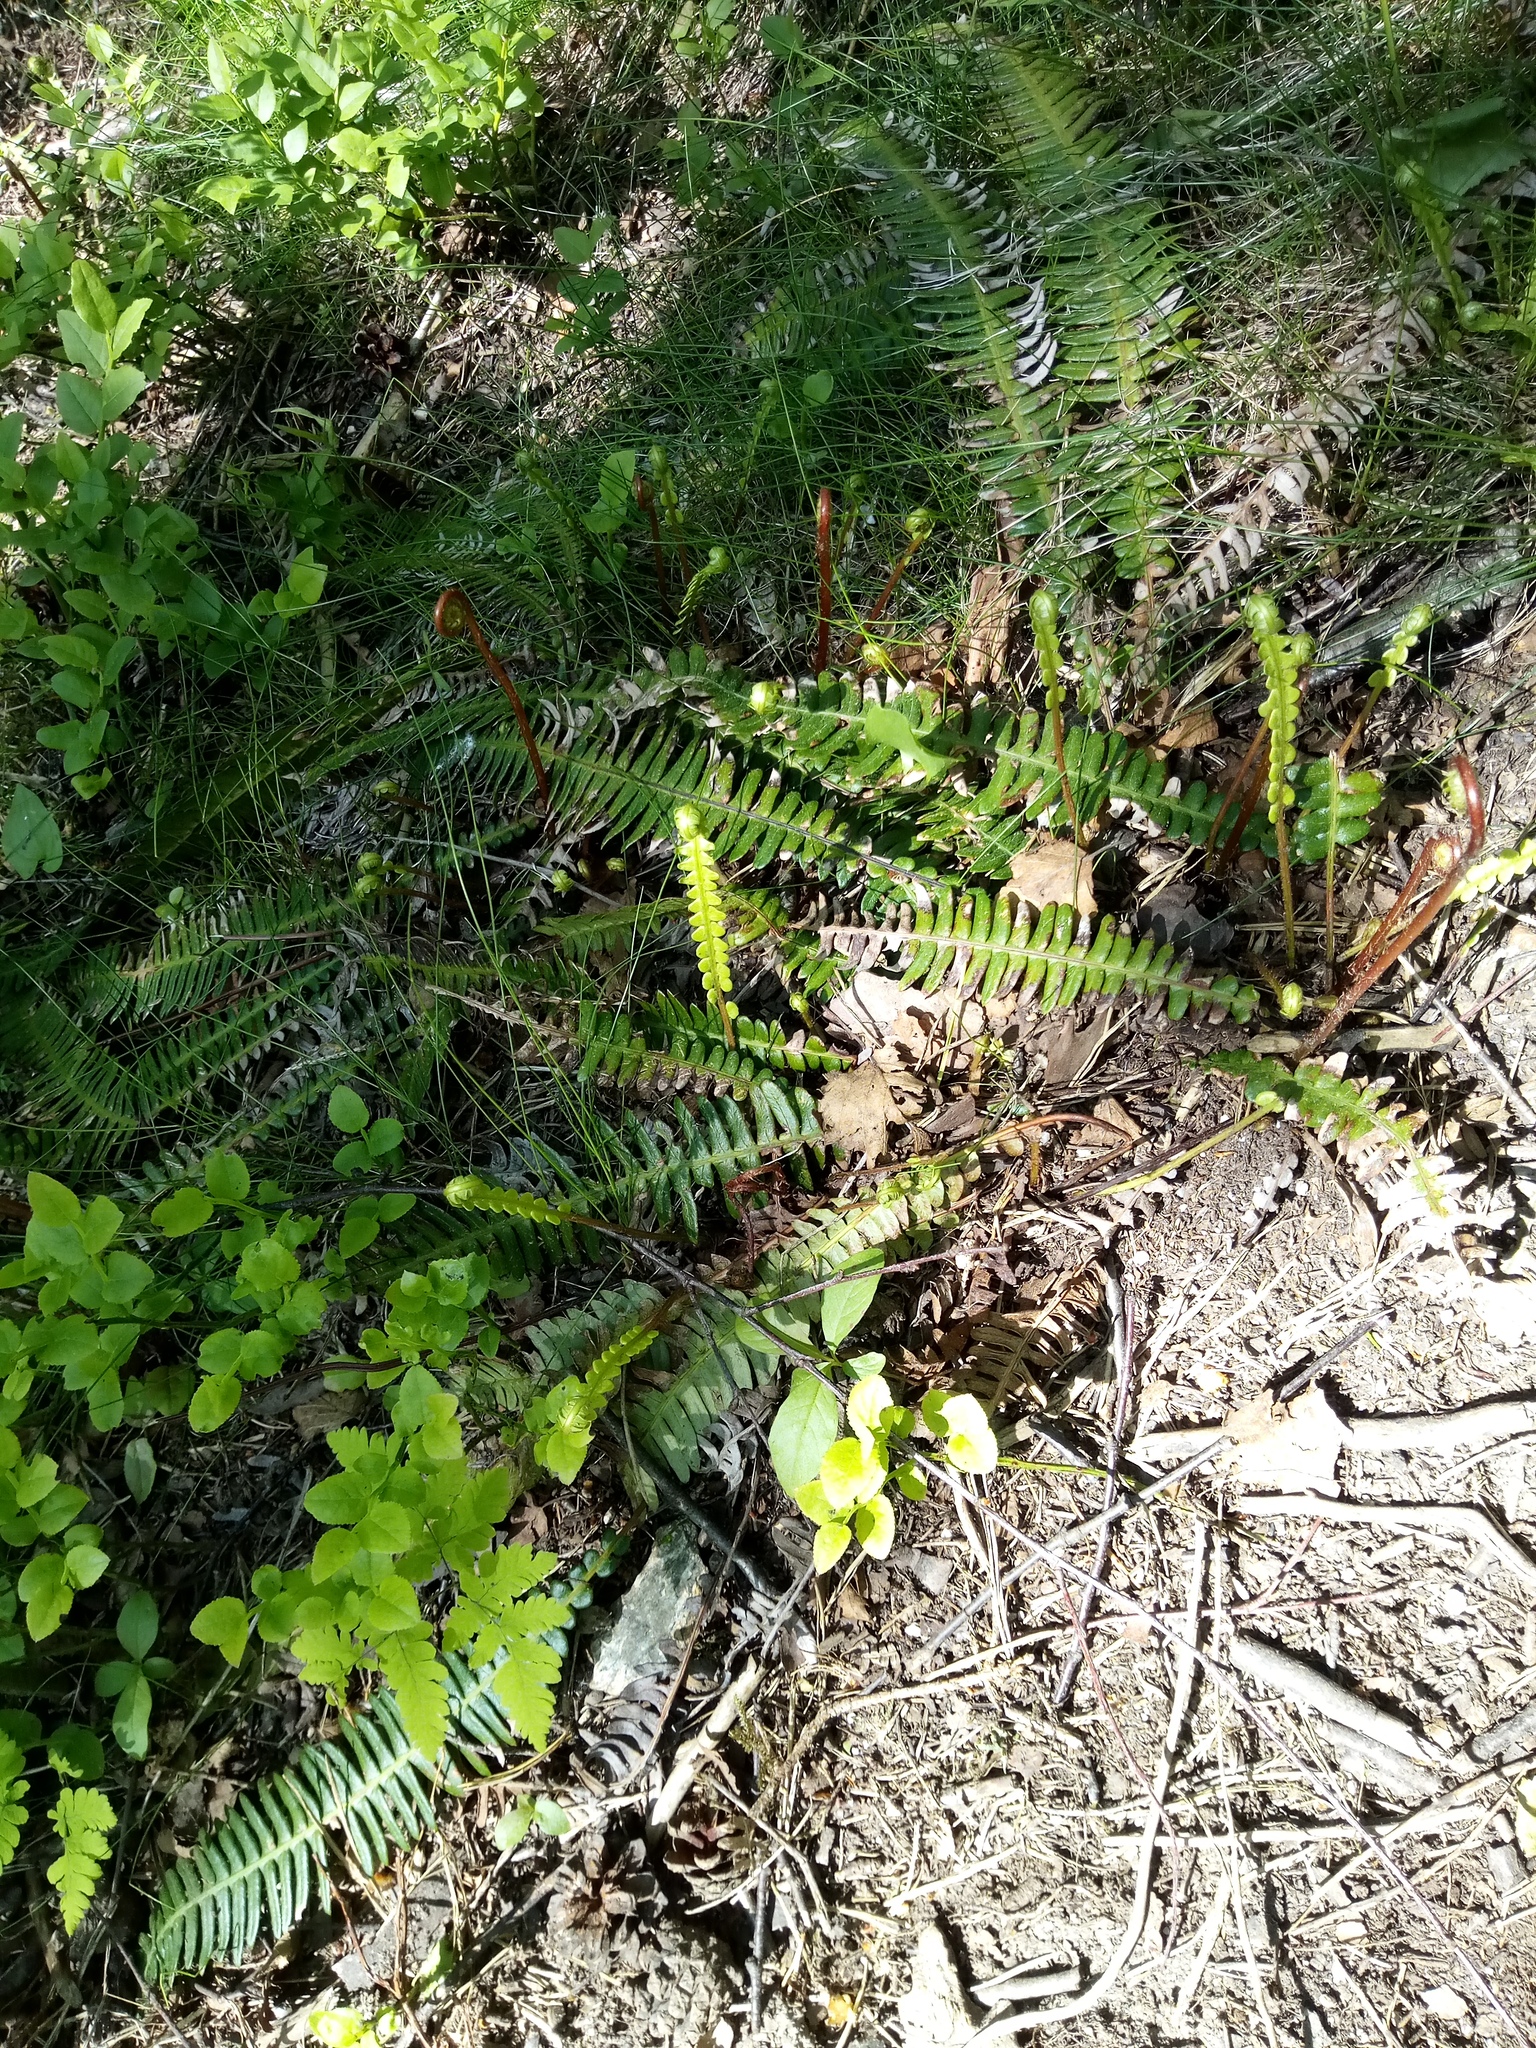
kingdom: Plantae
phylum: Tracheophyta
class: Polypodiopsida
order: Polypodiales
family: Blechnaceae
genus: Struthiopteris
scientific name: Struthiopteris spicant
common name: Deer fern
